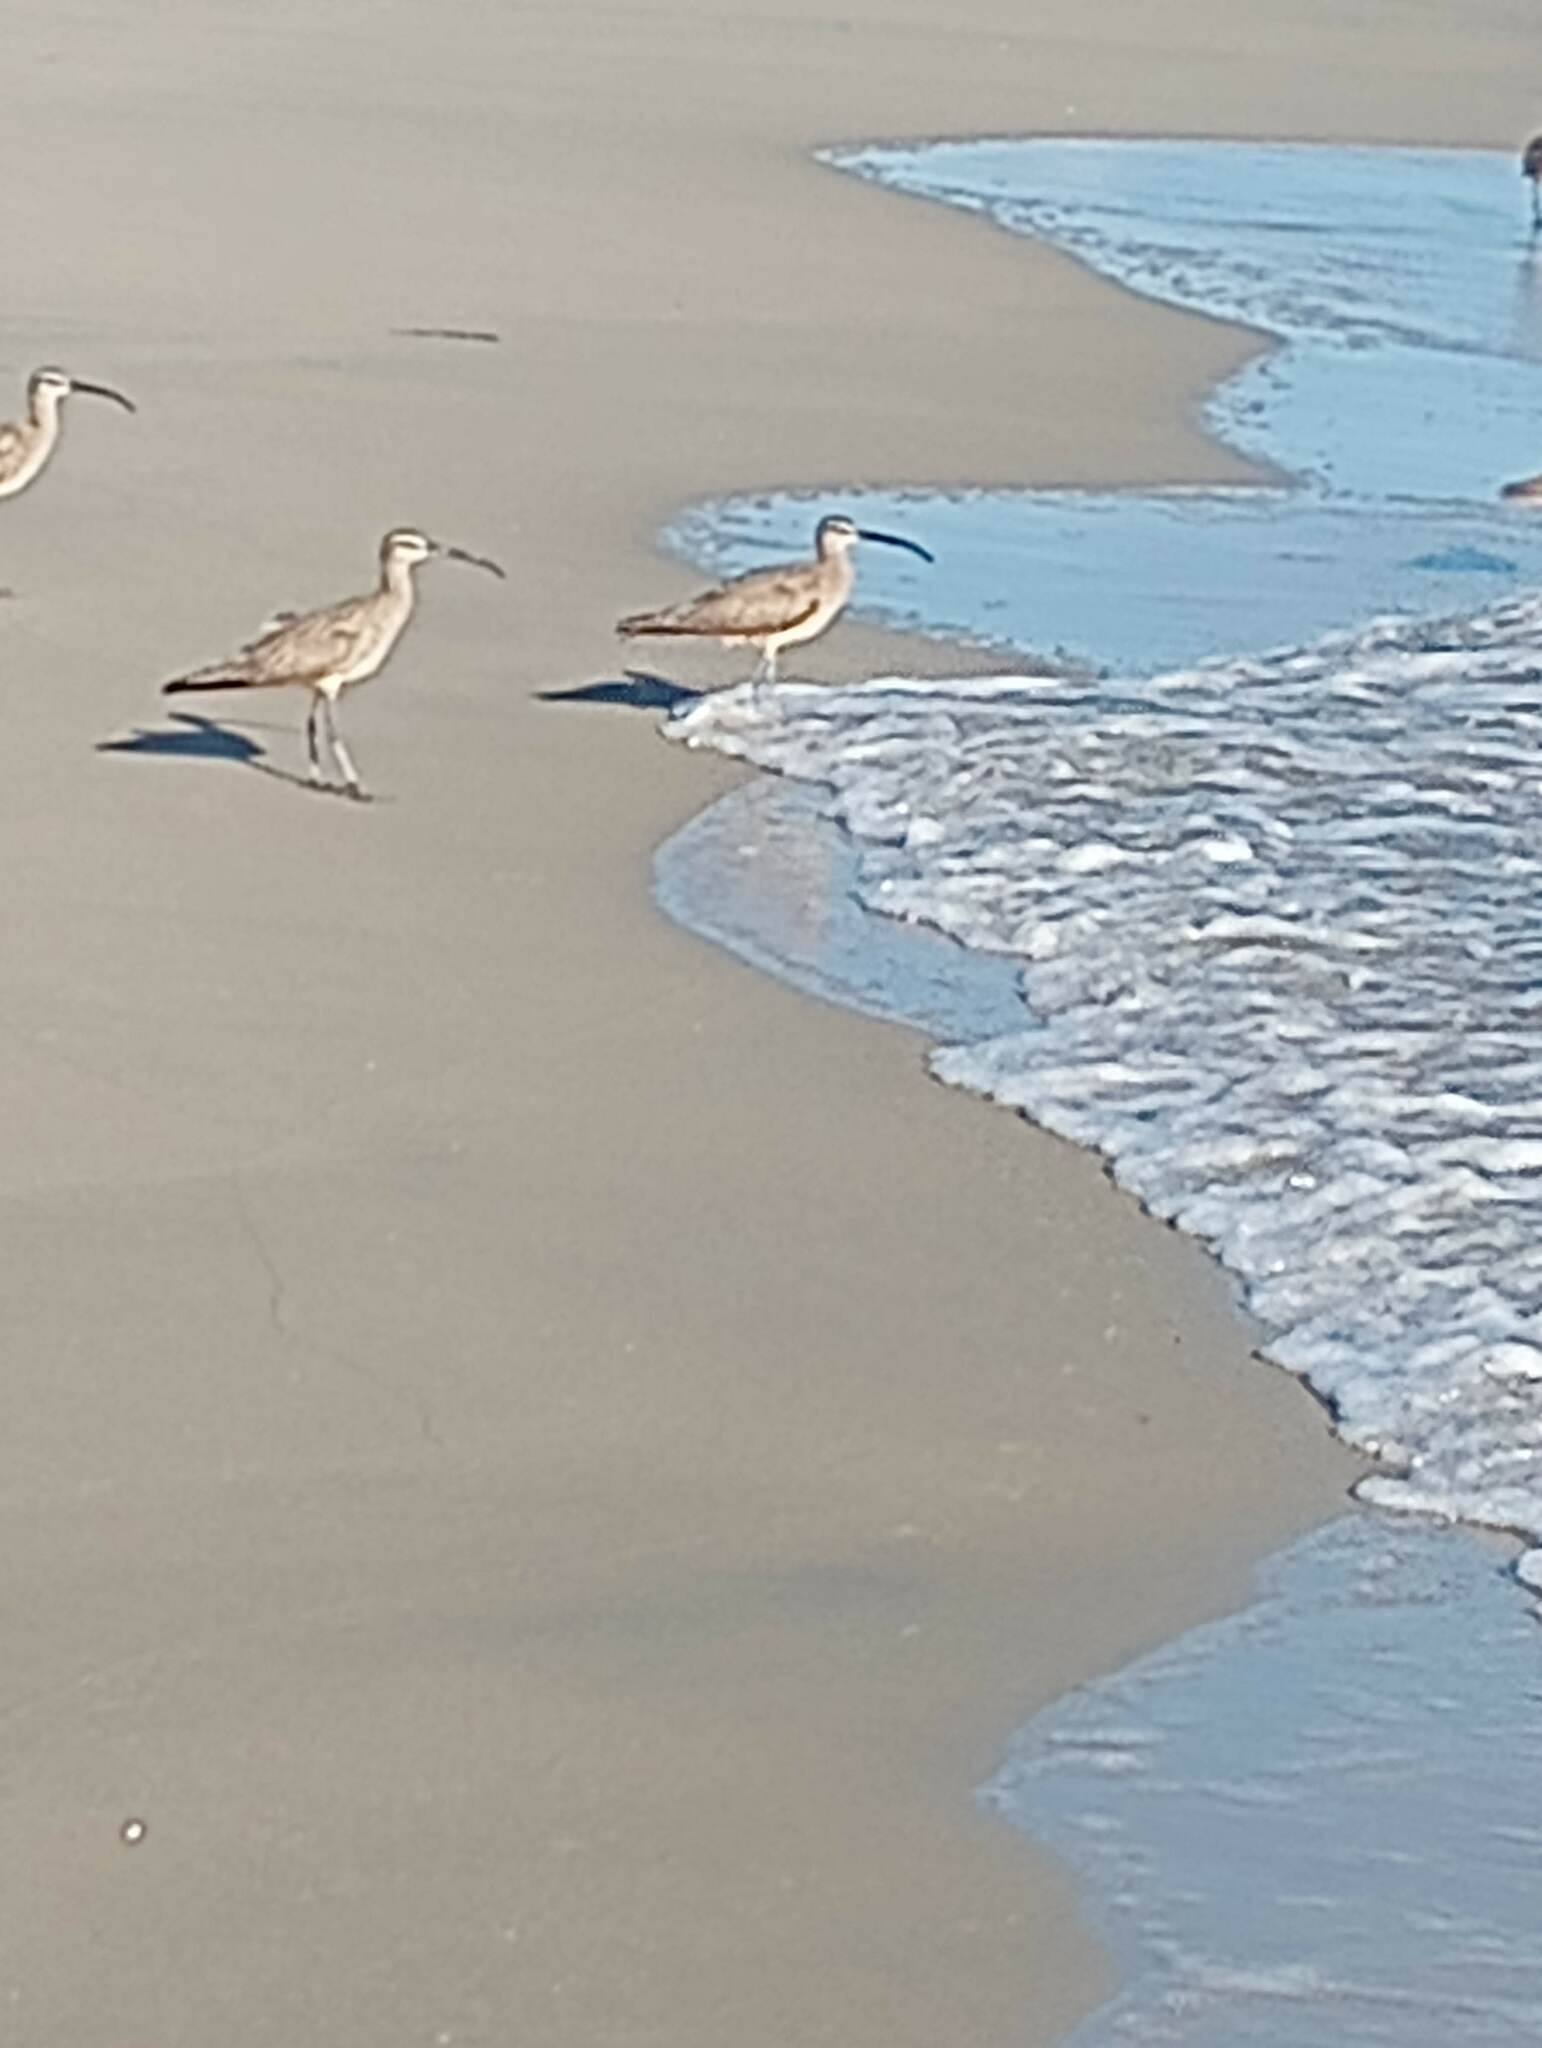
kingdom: Animalia
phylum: Chordata
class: Aves
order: Charadriiformes
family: Scolopacidae
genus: Numenius
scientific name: Numenius phaeopus
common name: Whimbrel
